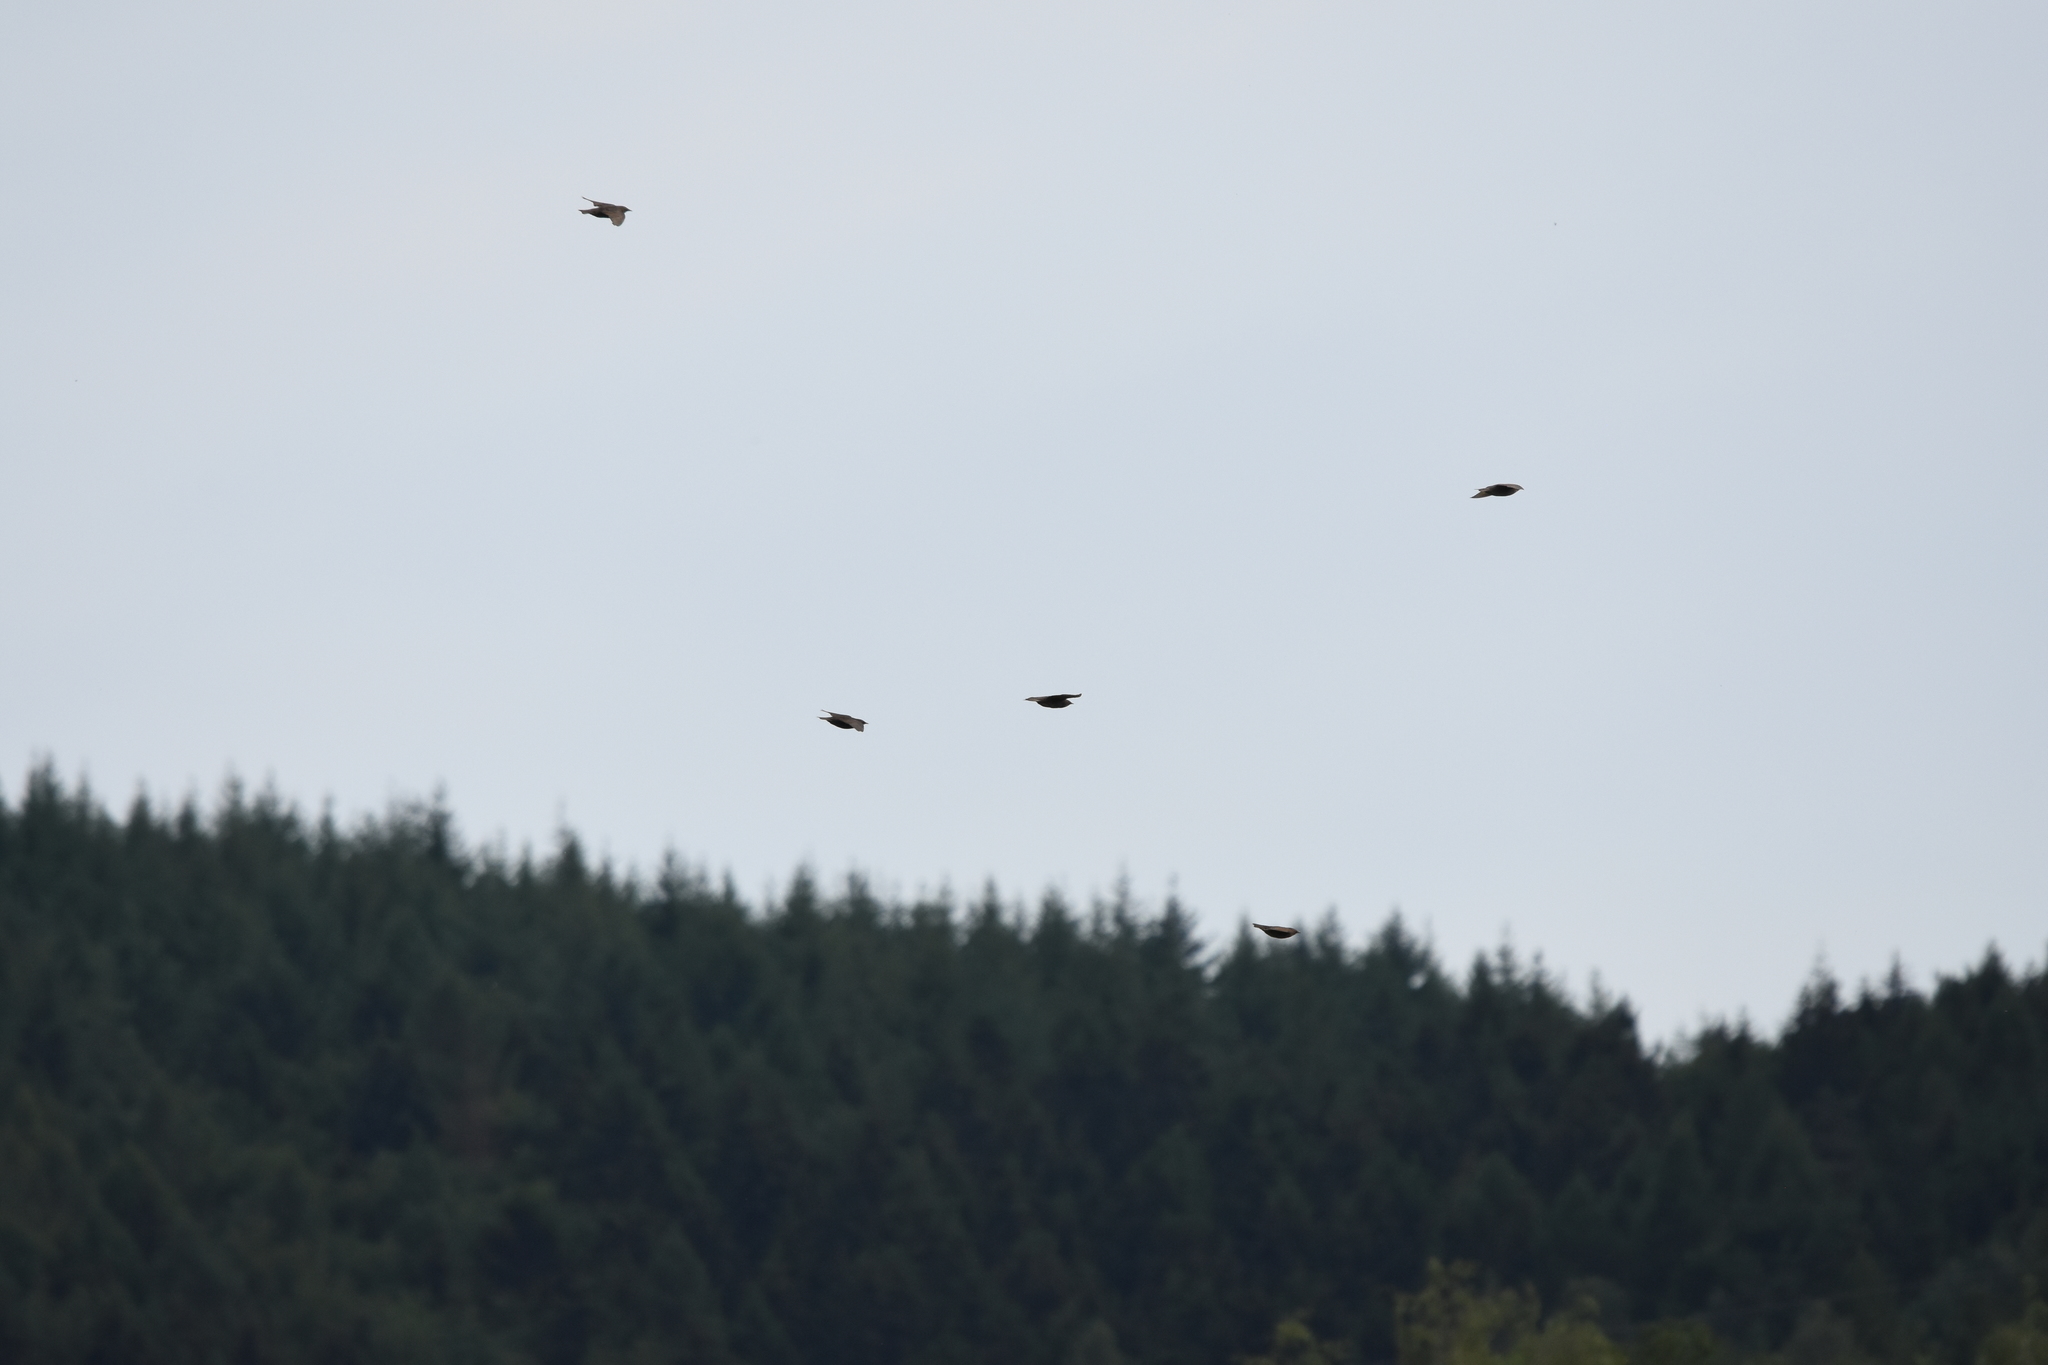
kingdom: Animalia
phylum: Chordata
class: Aves
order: Passeriformes
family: Sturnidae
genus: Sturnus
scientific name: Sturnus vulgaris
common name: Common starling
